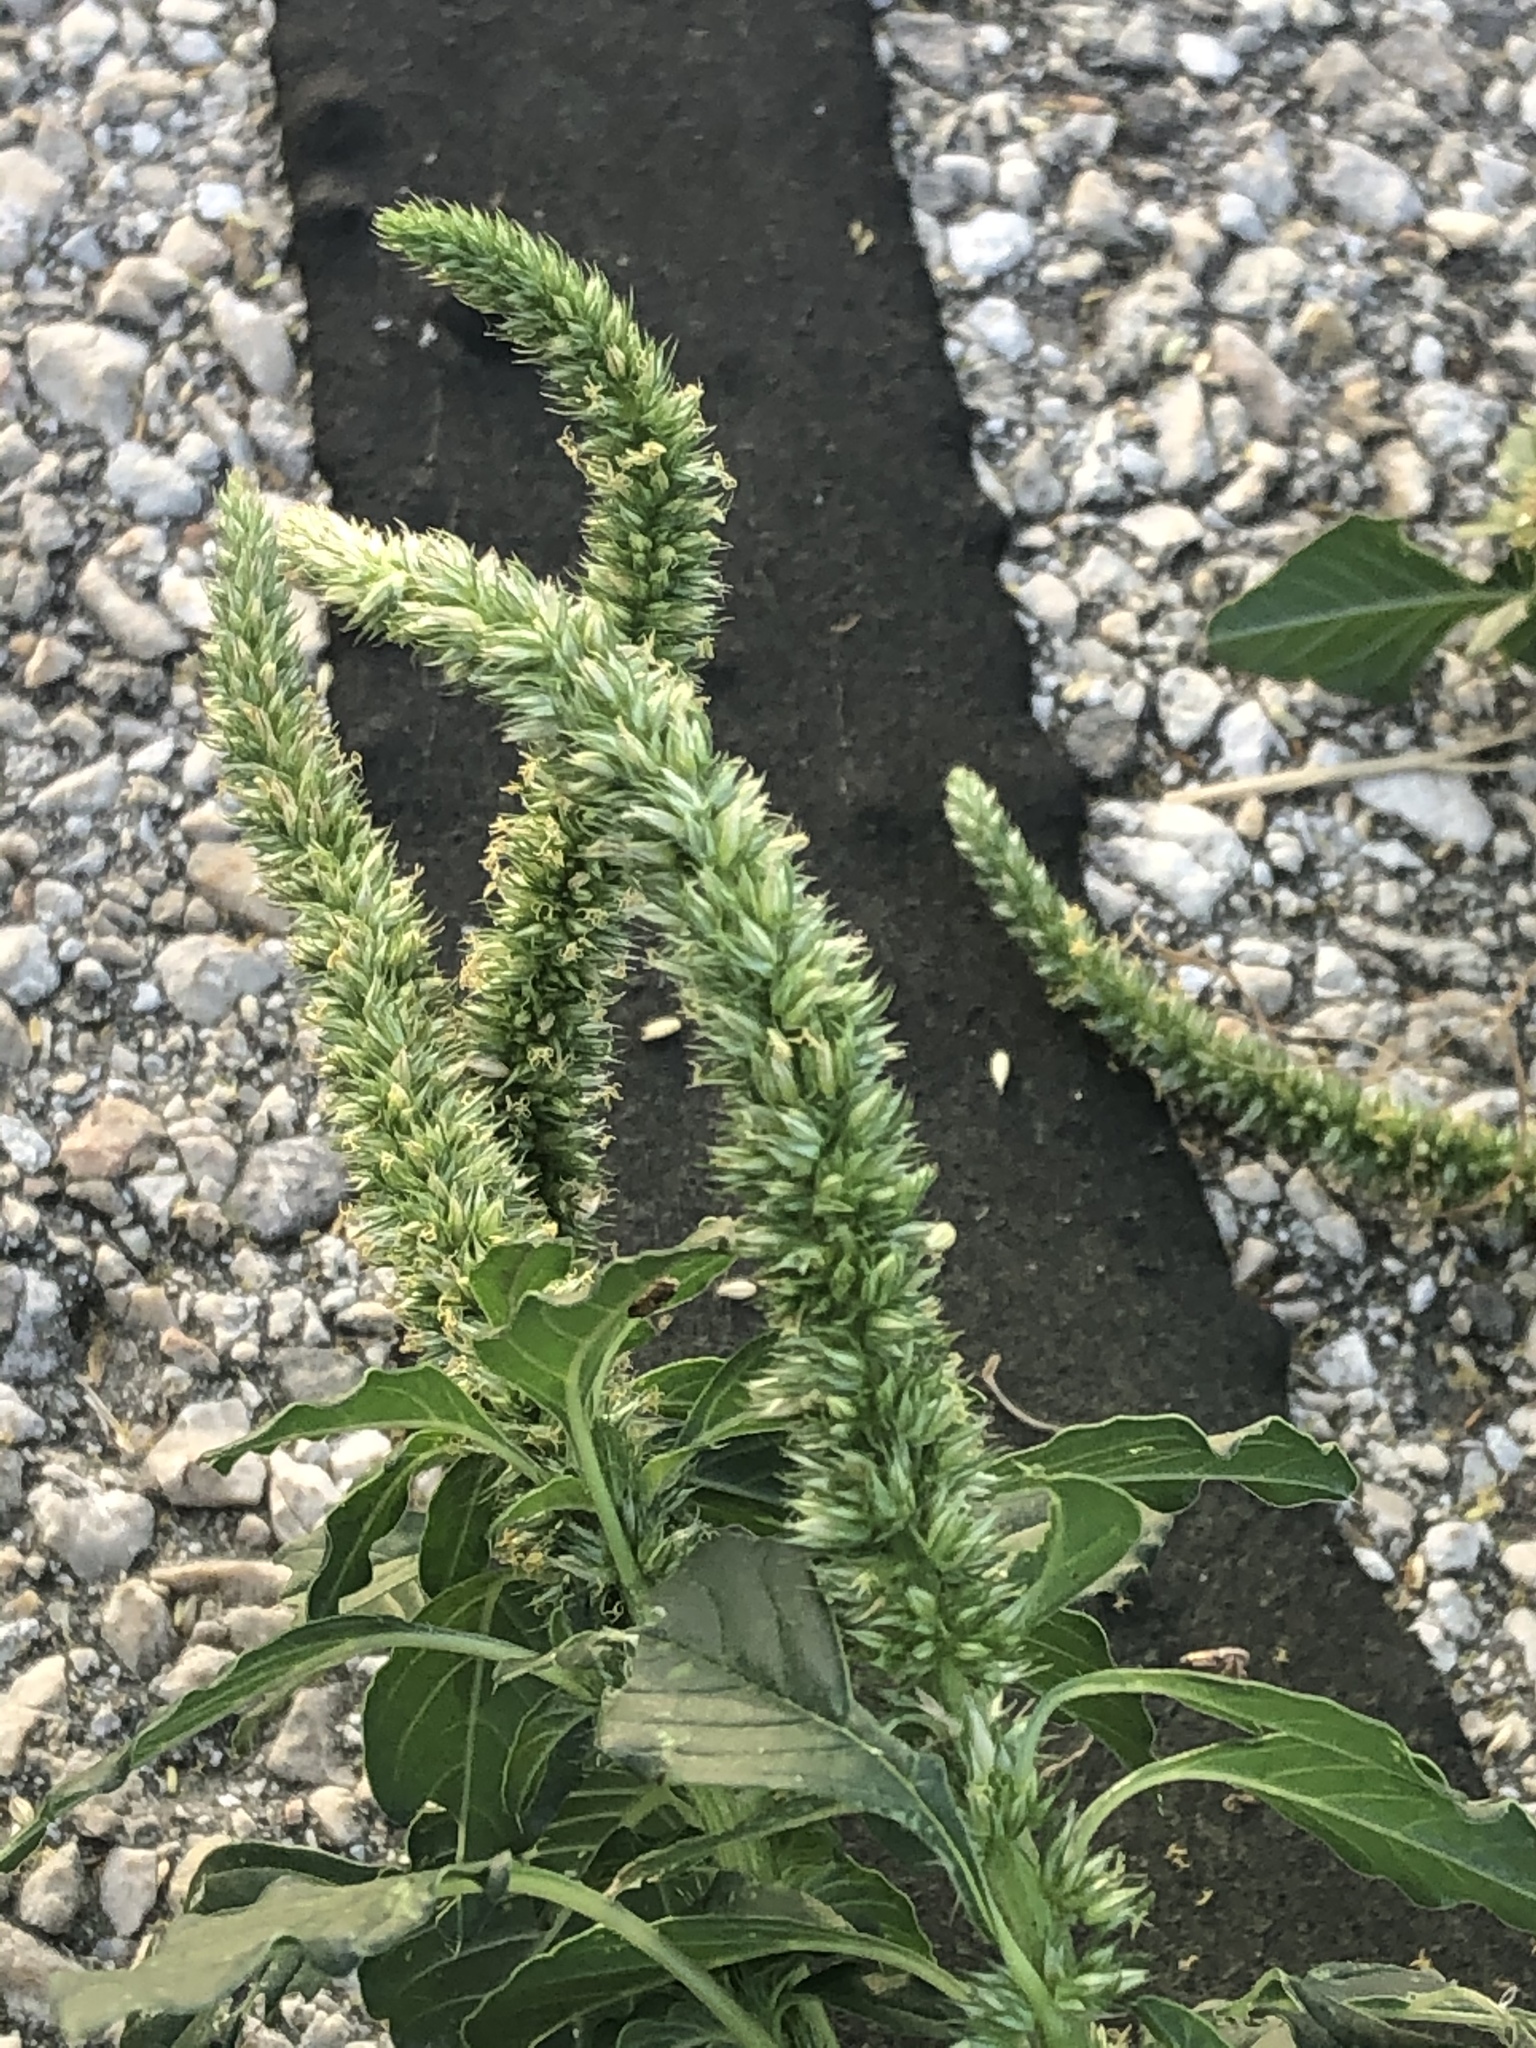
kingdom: Plantae
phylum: Tracheophyta
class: Magnoliopsida
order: Caryophyllales
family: Amaranthaceae
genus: Amaranthus
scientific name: Amaranthus palmeri
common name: Dioecious amaranth
